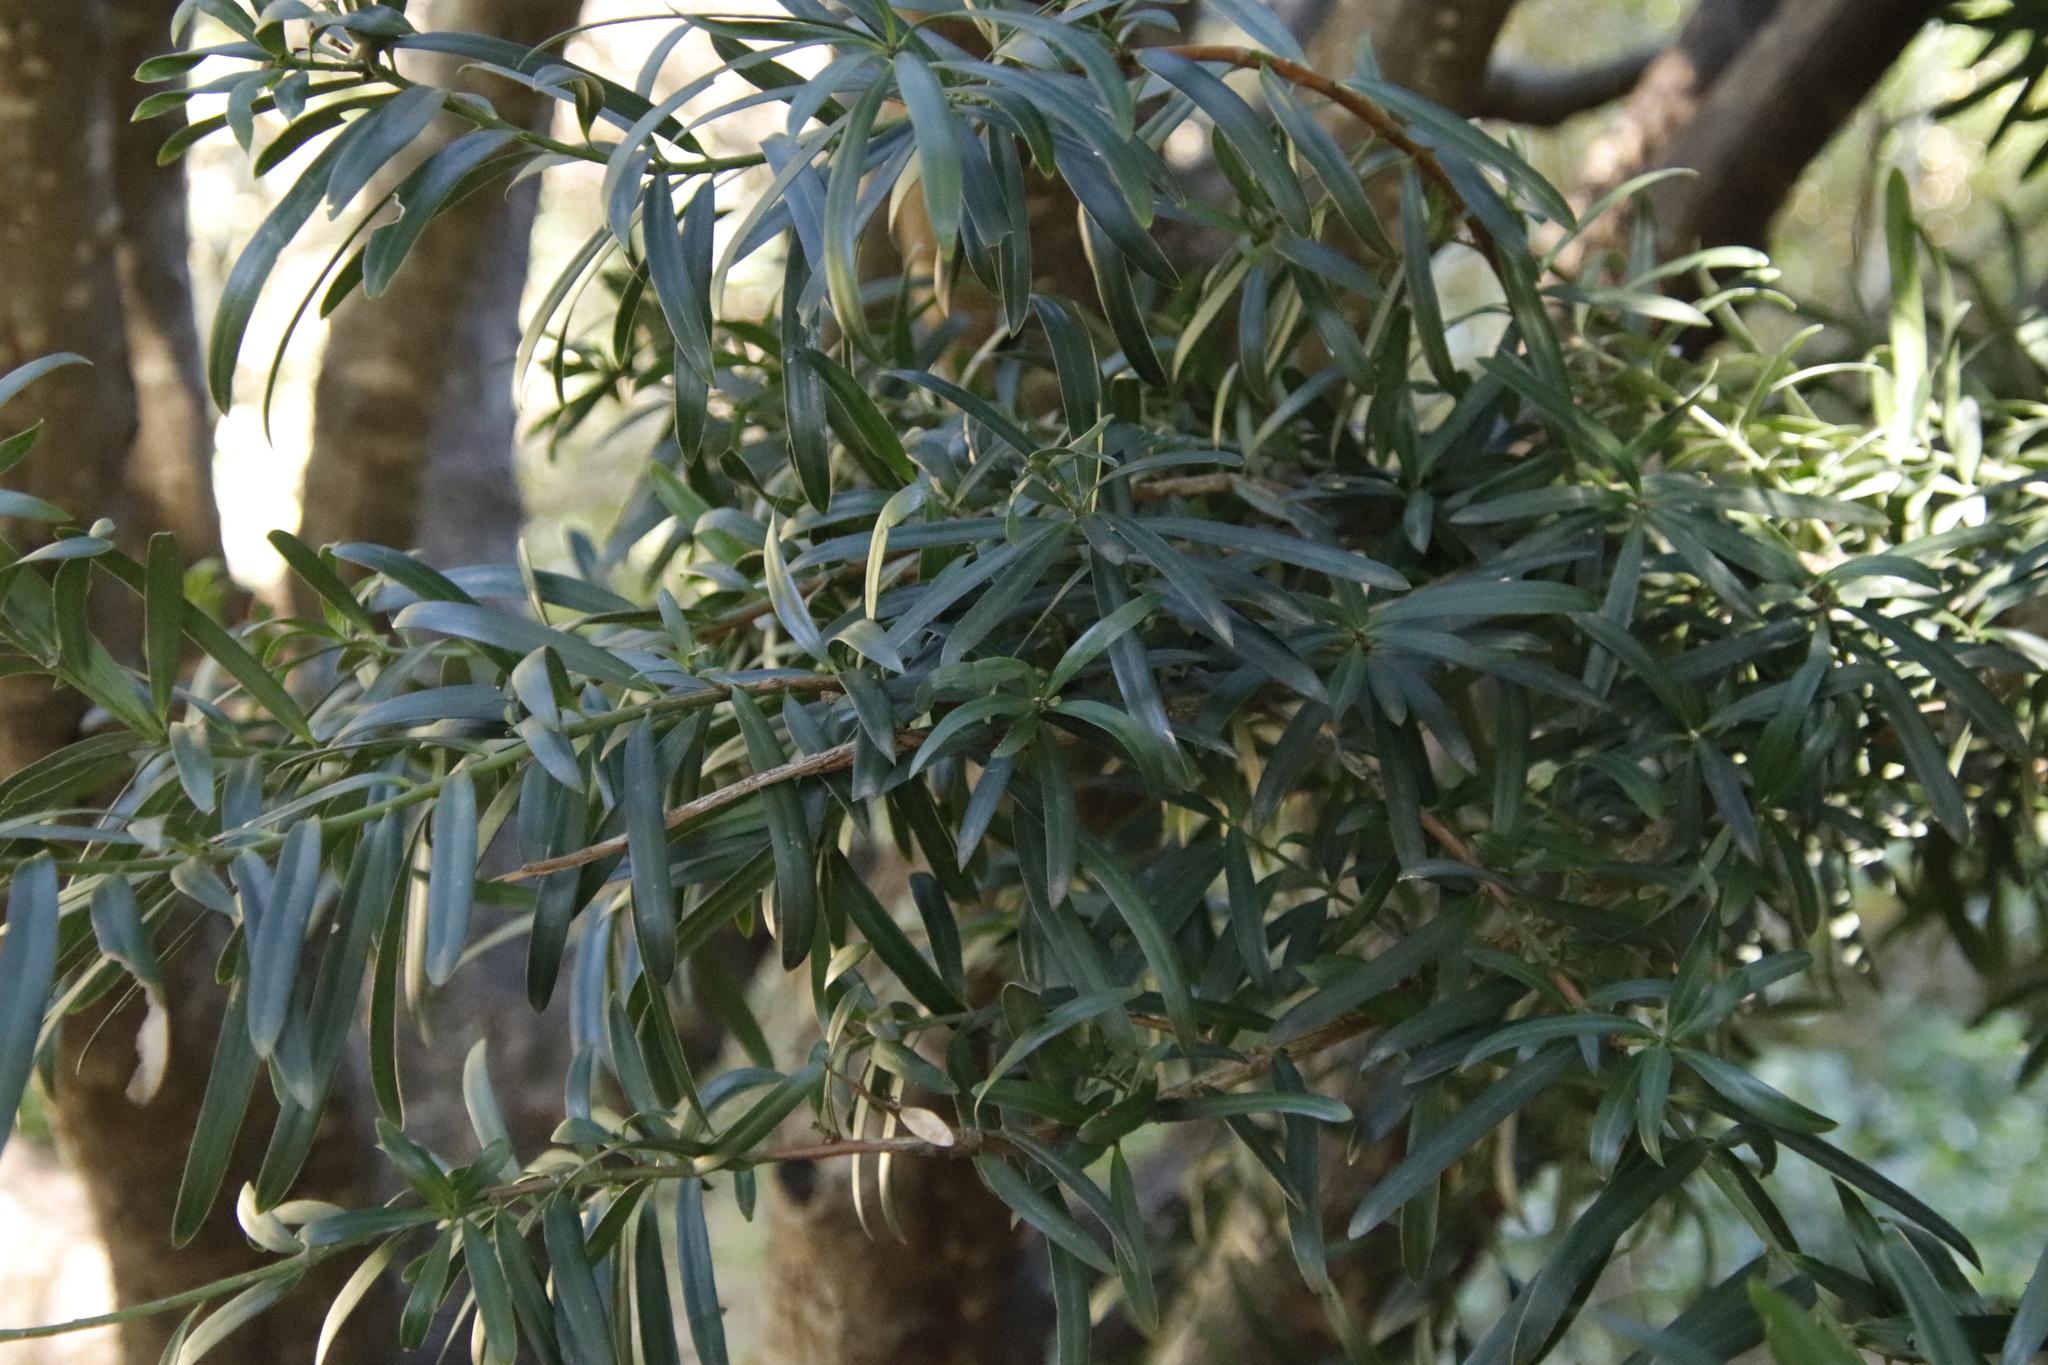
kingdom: Plantae
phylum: Tracheophyta
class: Pinopsida
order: Pinales
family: Podocarpaceae
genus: Podocarpus
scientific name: Podocarpus latifolius
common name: True yellowwood
